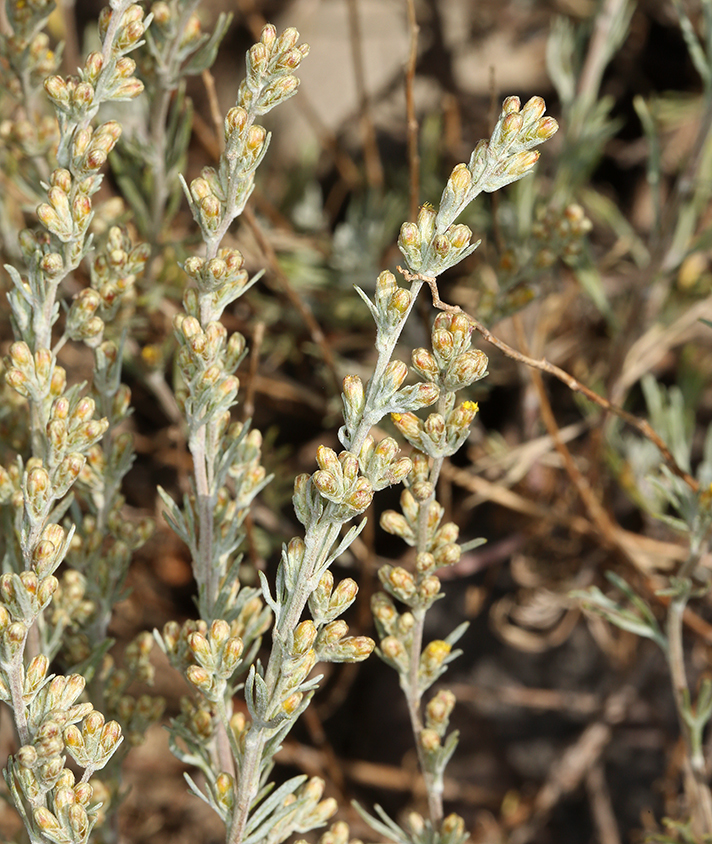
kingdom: Plantae
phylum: Tracheophyta
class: Magnoliopsida
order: Asterales
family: Asteraceae
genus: Artemisia
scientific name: Artemisia arbuscula
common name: Sagebrush
